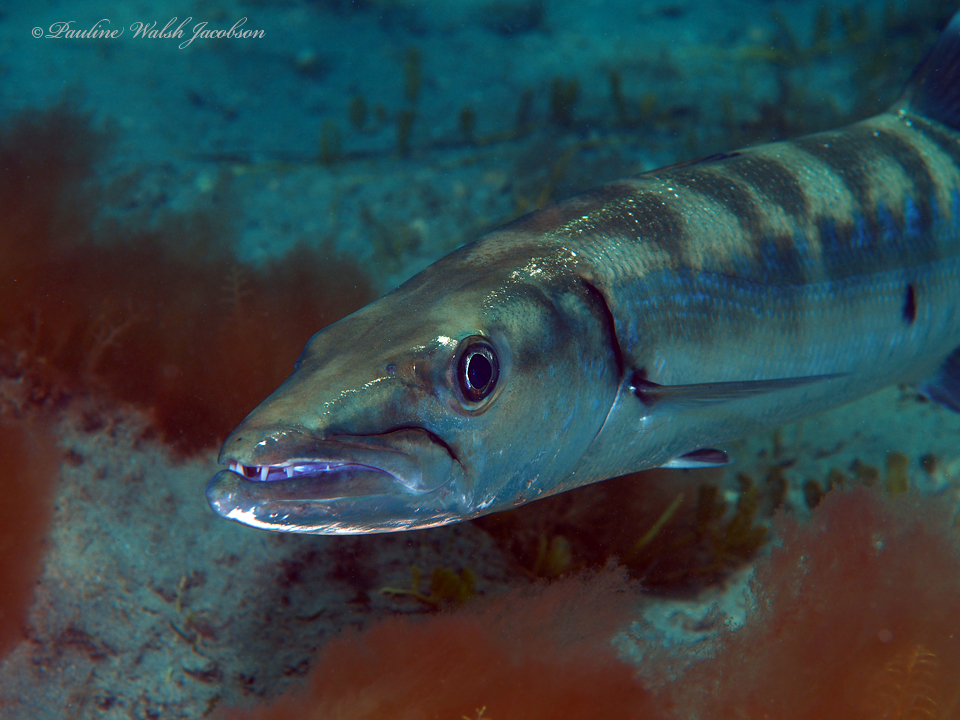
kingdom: Animalia
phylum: Chordata
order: Perciformes
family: Sphyraenidae
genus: Sphyraena
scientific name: Sphyraena barracuda
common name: Great barracuda
